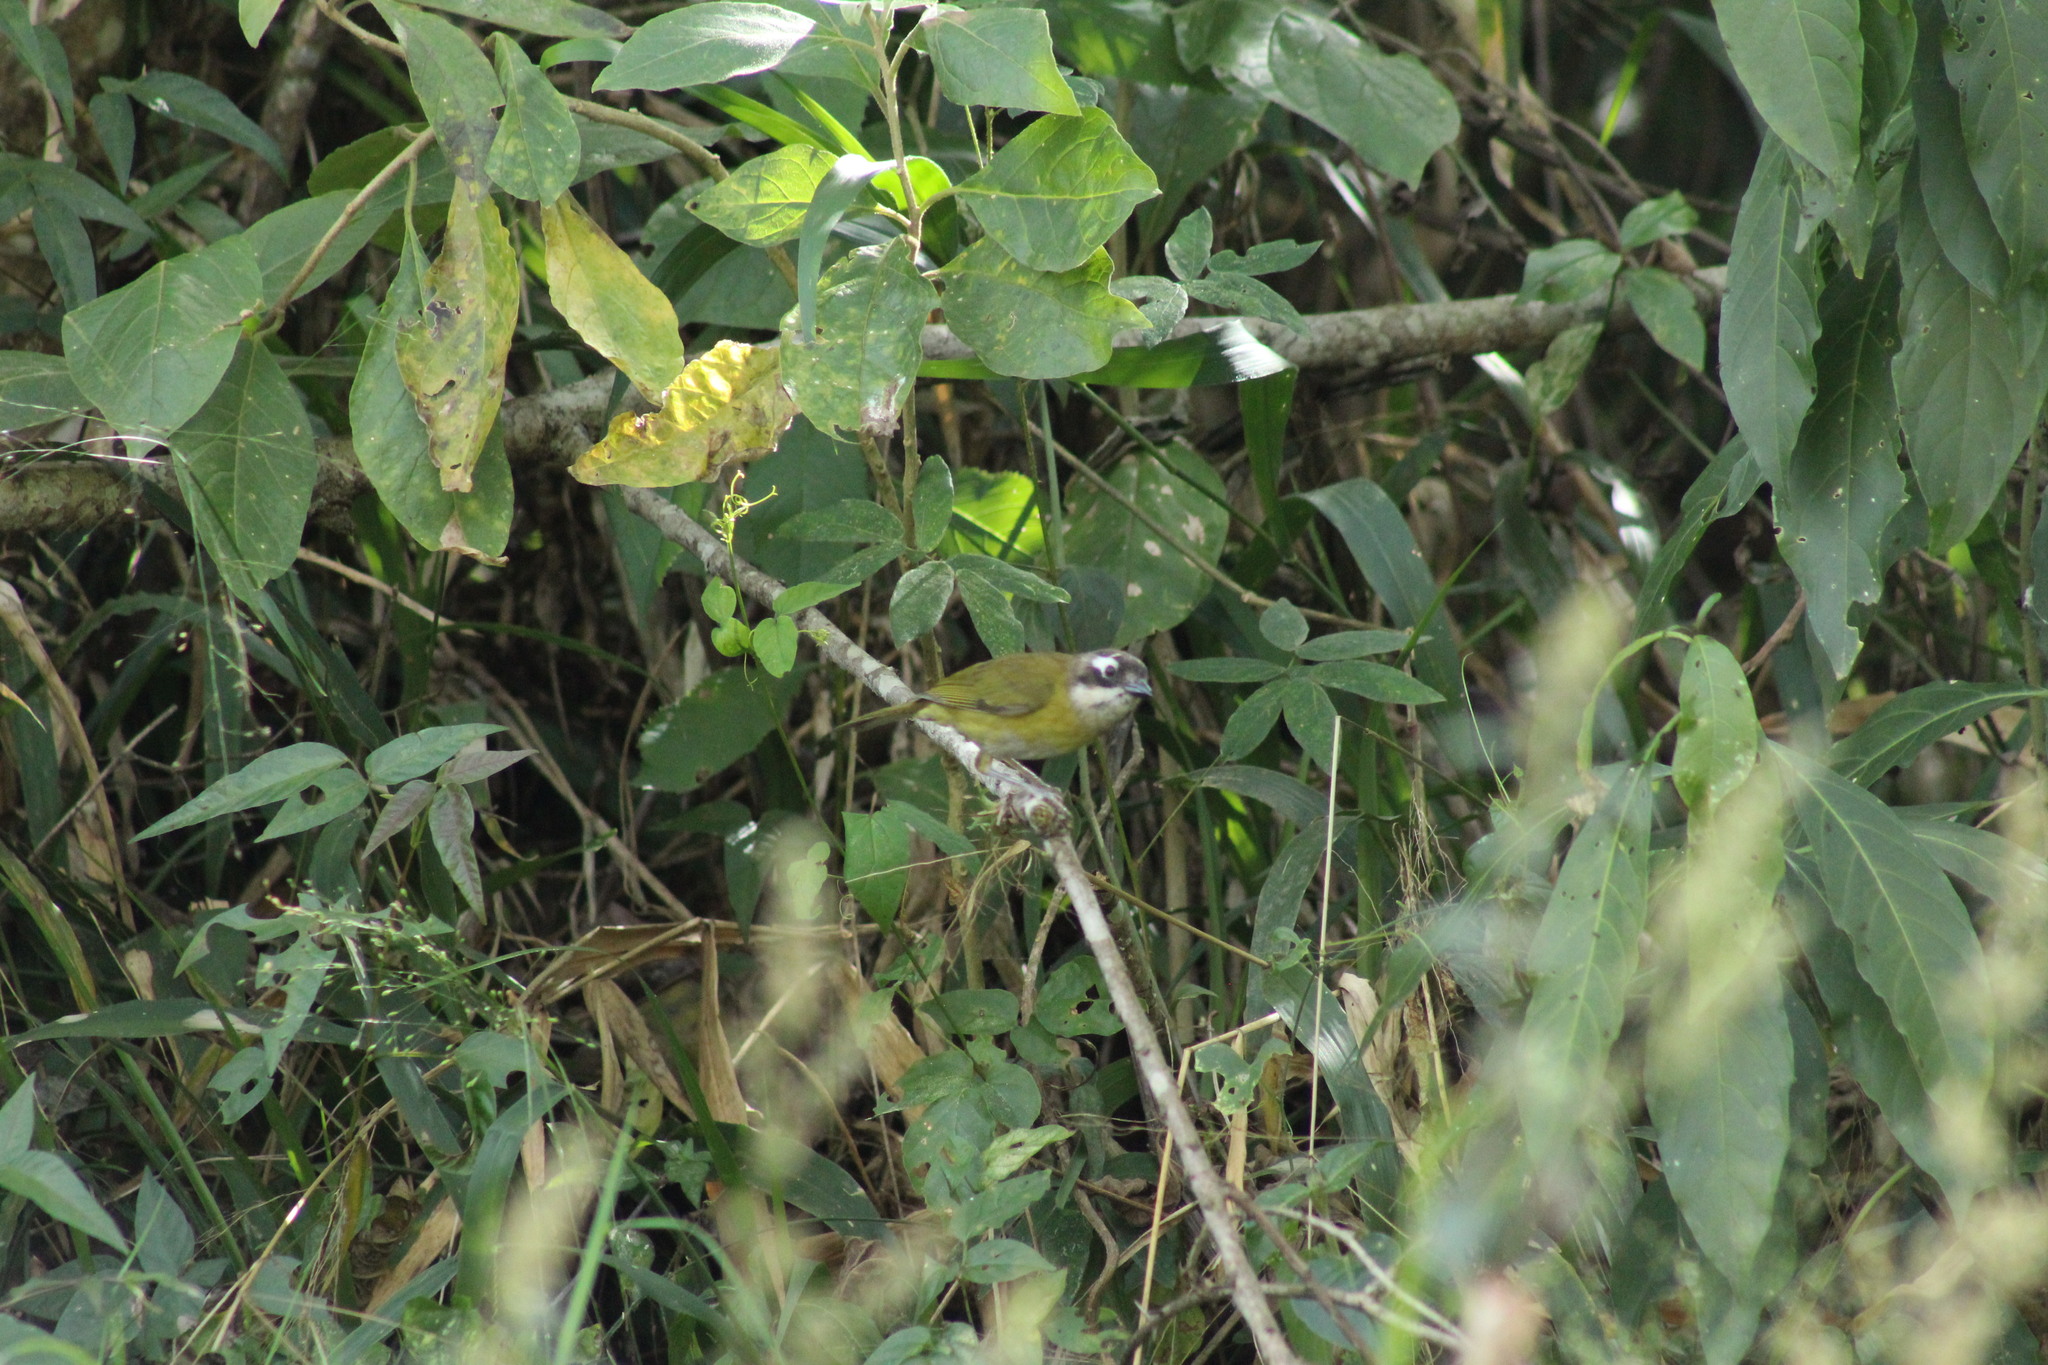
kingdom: Animalia
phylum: Chordata
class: Aves
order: Passeriformes
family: Passerellidae
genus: Chlorospingus
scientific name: Chlorospingus flavopectus
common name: Common chlorospingus
